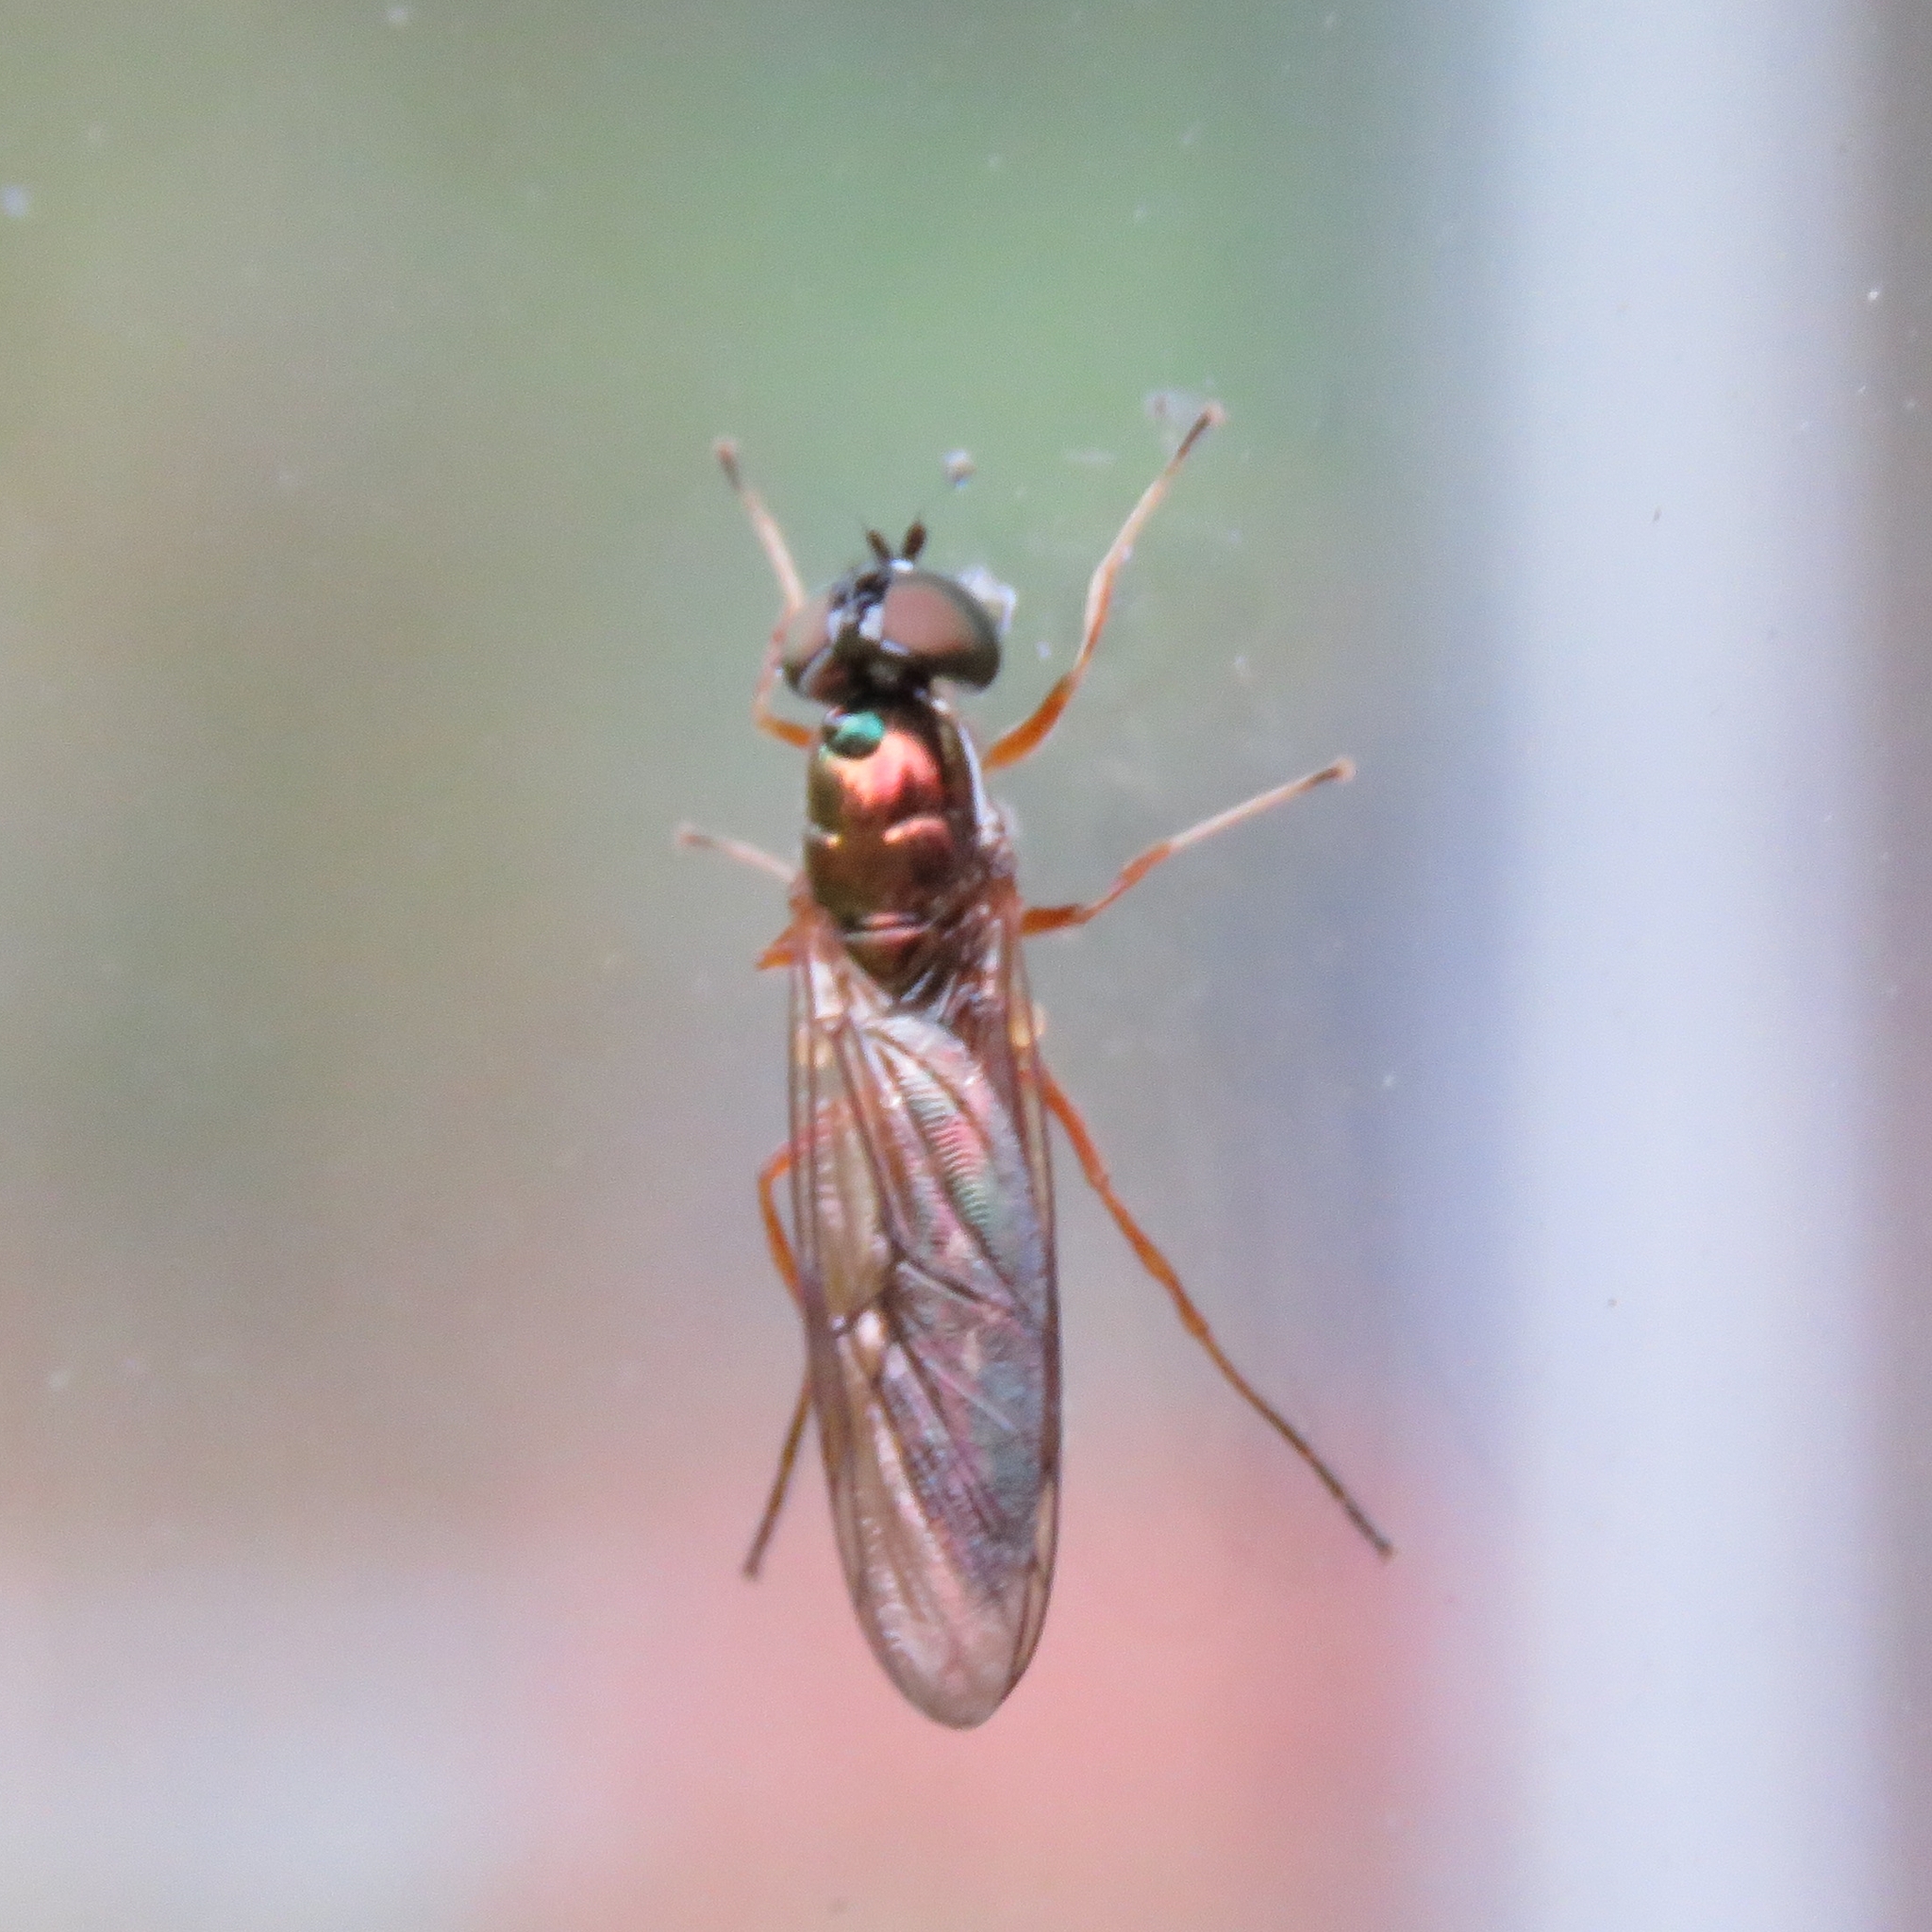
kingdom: Animalia
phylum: Arthropoda
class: Insecta
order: Diptera
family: Stratiomyidae
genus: Sargus
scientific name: Sargus bipunctatus
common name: Twin-spot centurion
